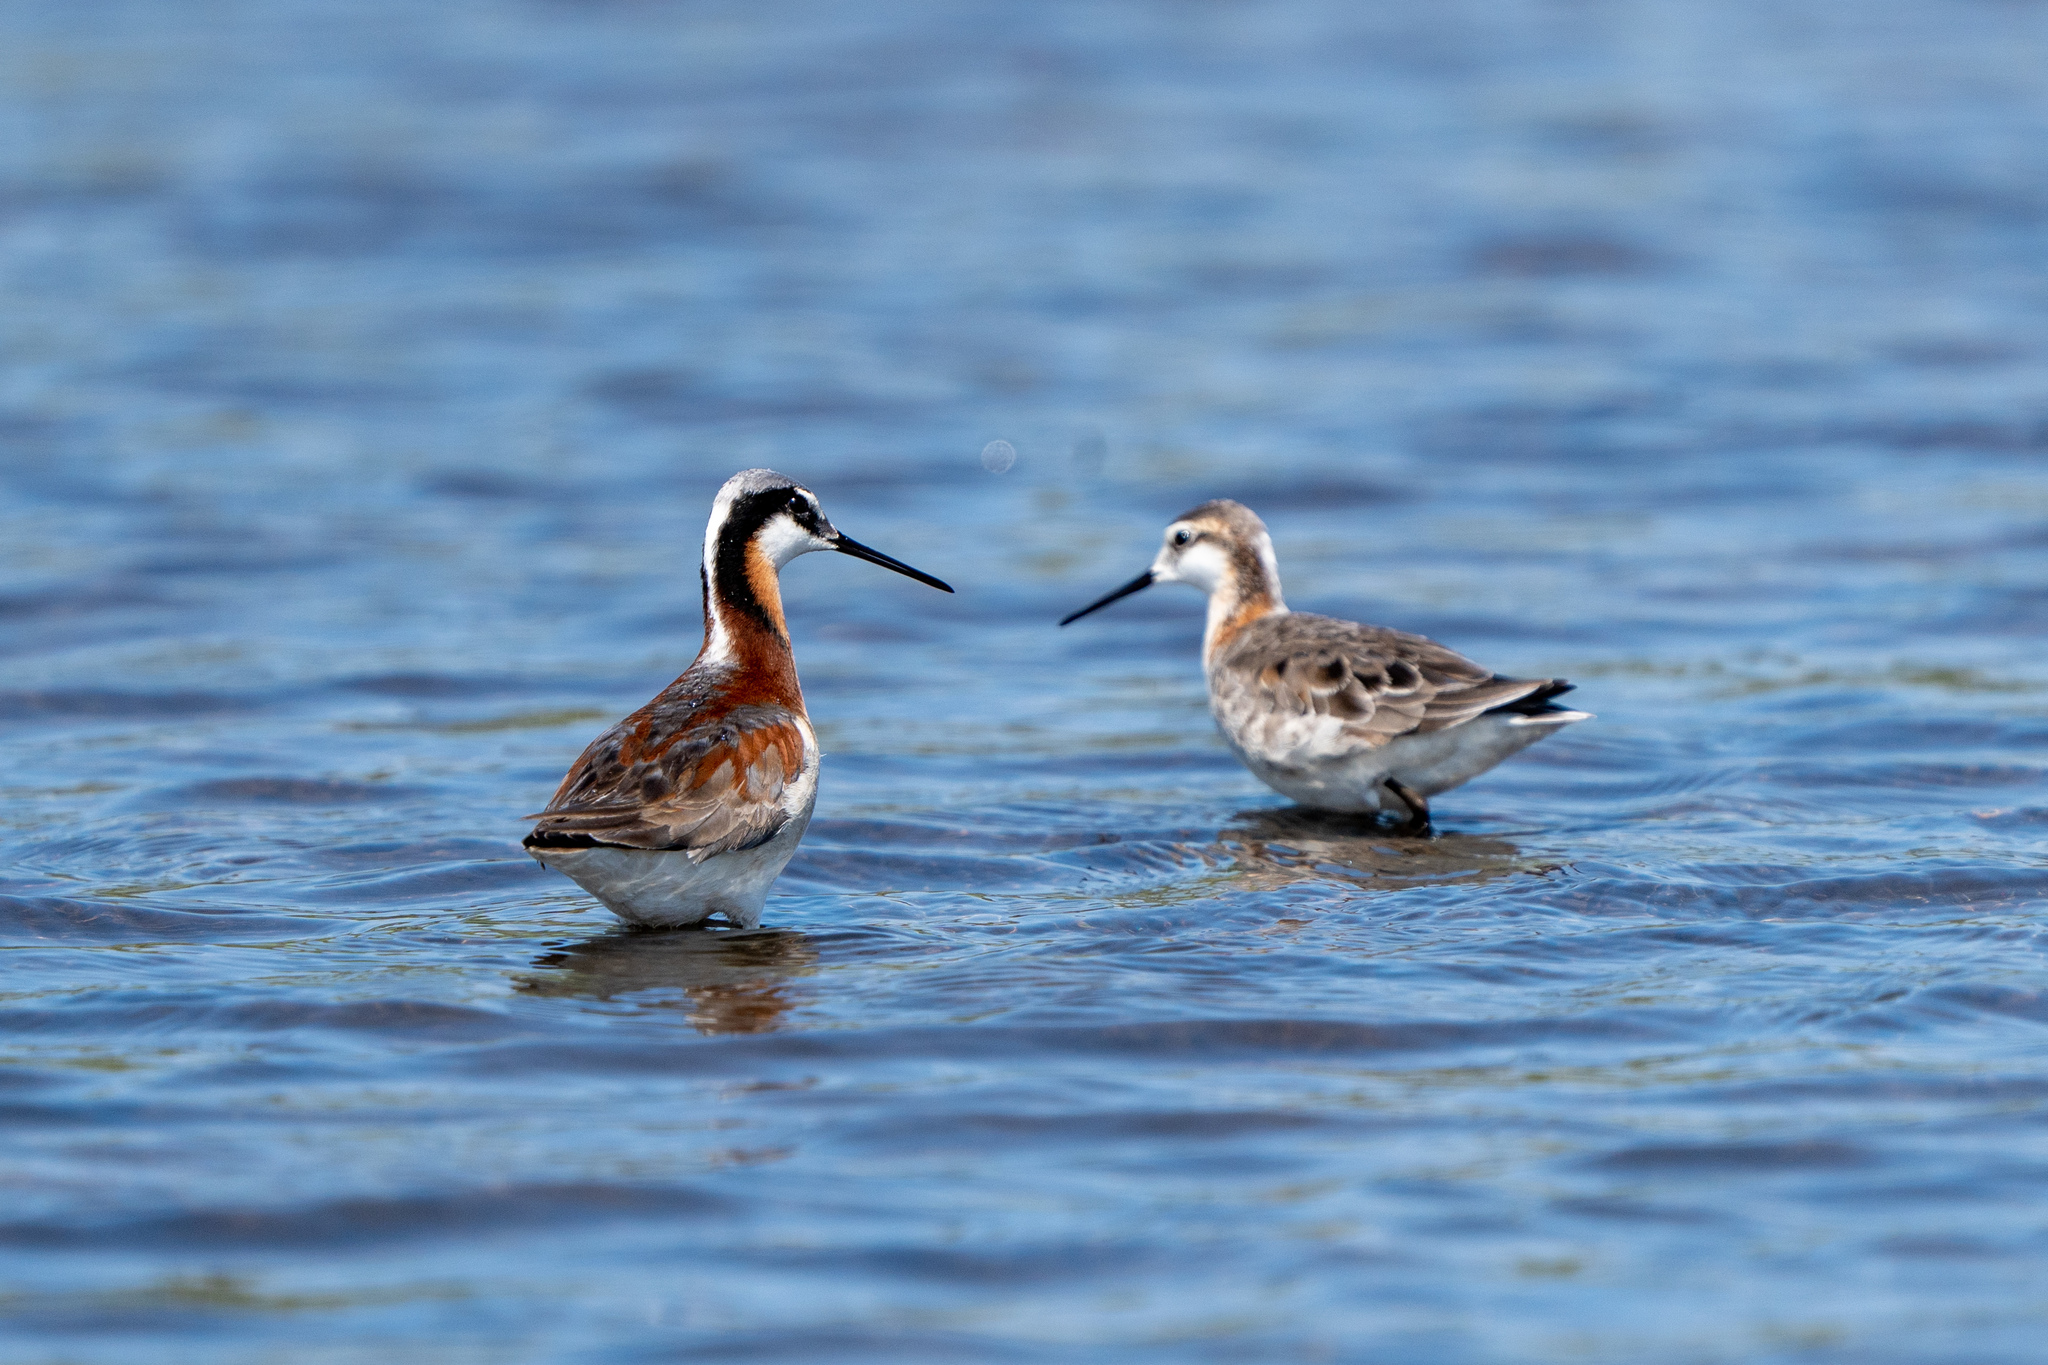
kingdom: Animalia
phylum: Chordata
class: Aves
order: Charadriiformes
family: Scolopacidae
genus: Phalaropus
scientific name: Phalaropus tricolor
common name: Wilson's phalarope
